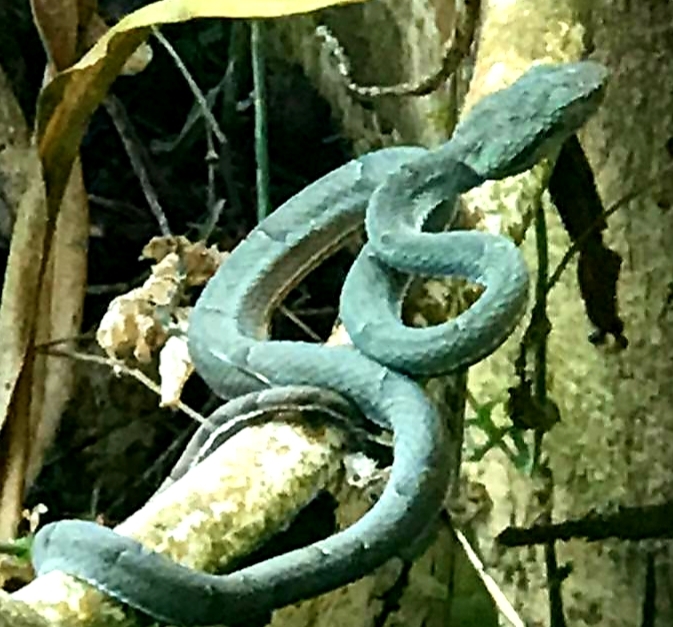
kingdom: Animalia
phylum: Chordata
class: Squamata
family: Viperidae
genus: Bothriechis
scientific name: Bothriechis lateralis
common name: Coffee palm viper
